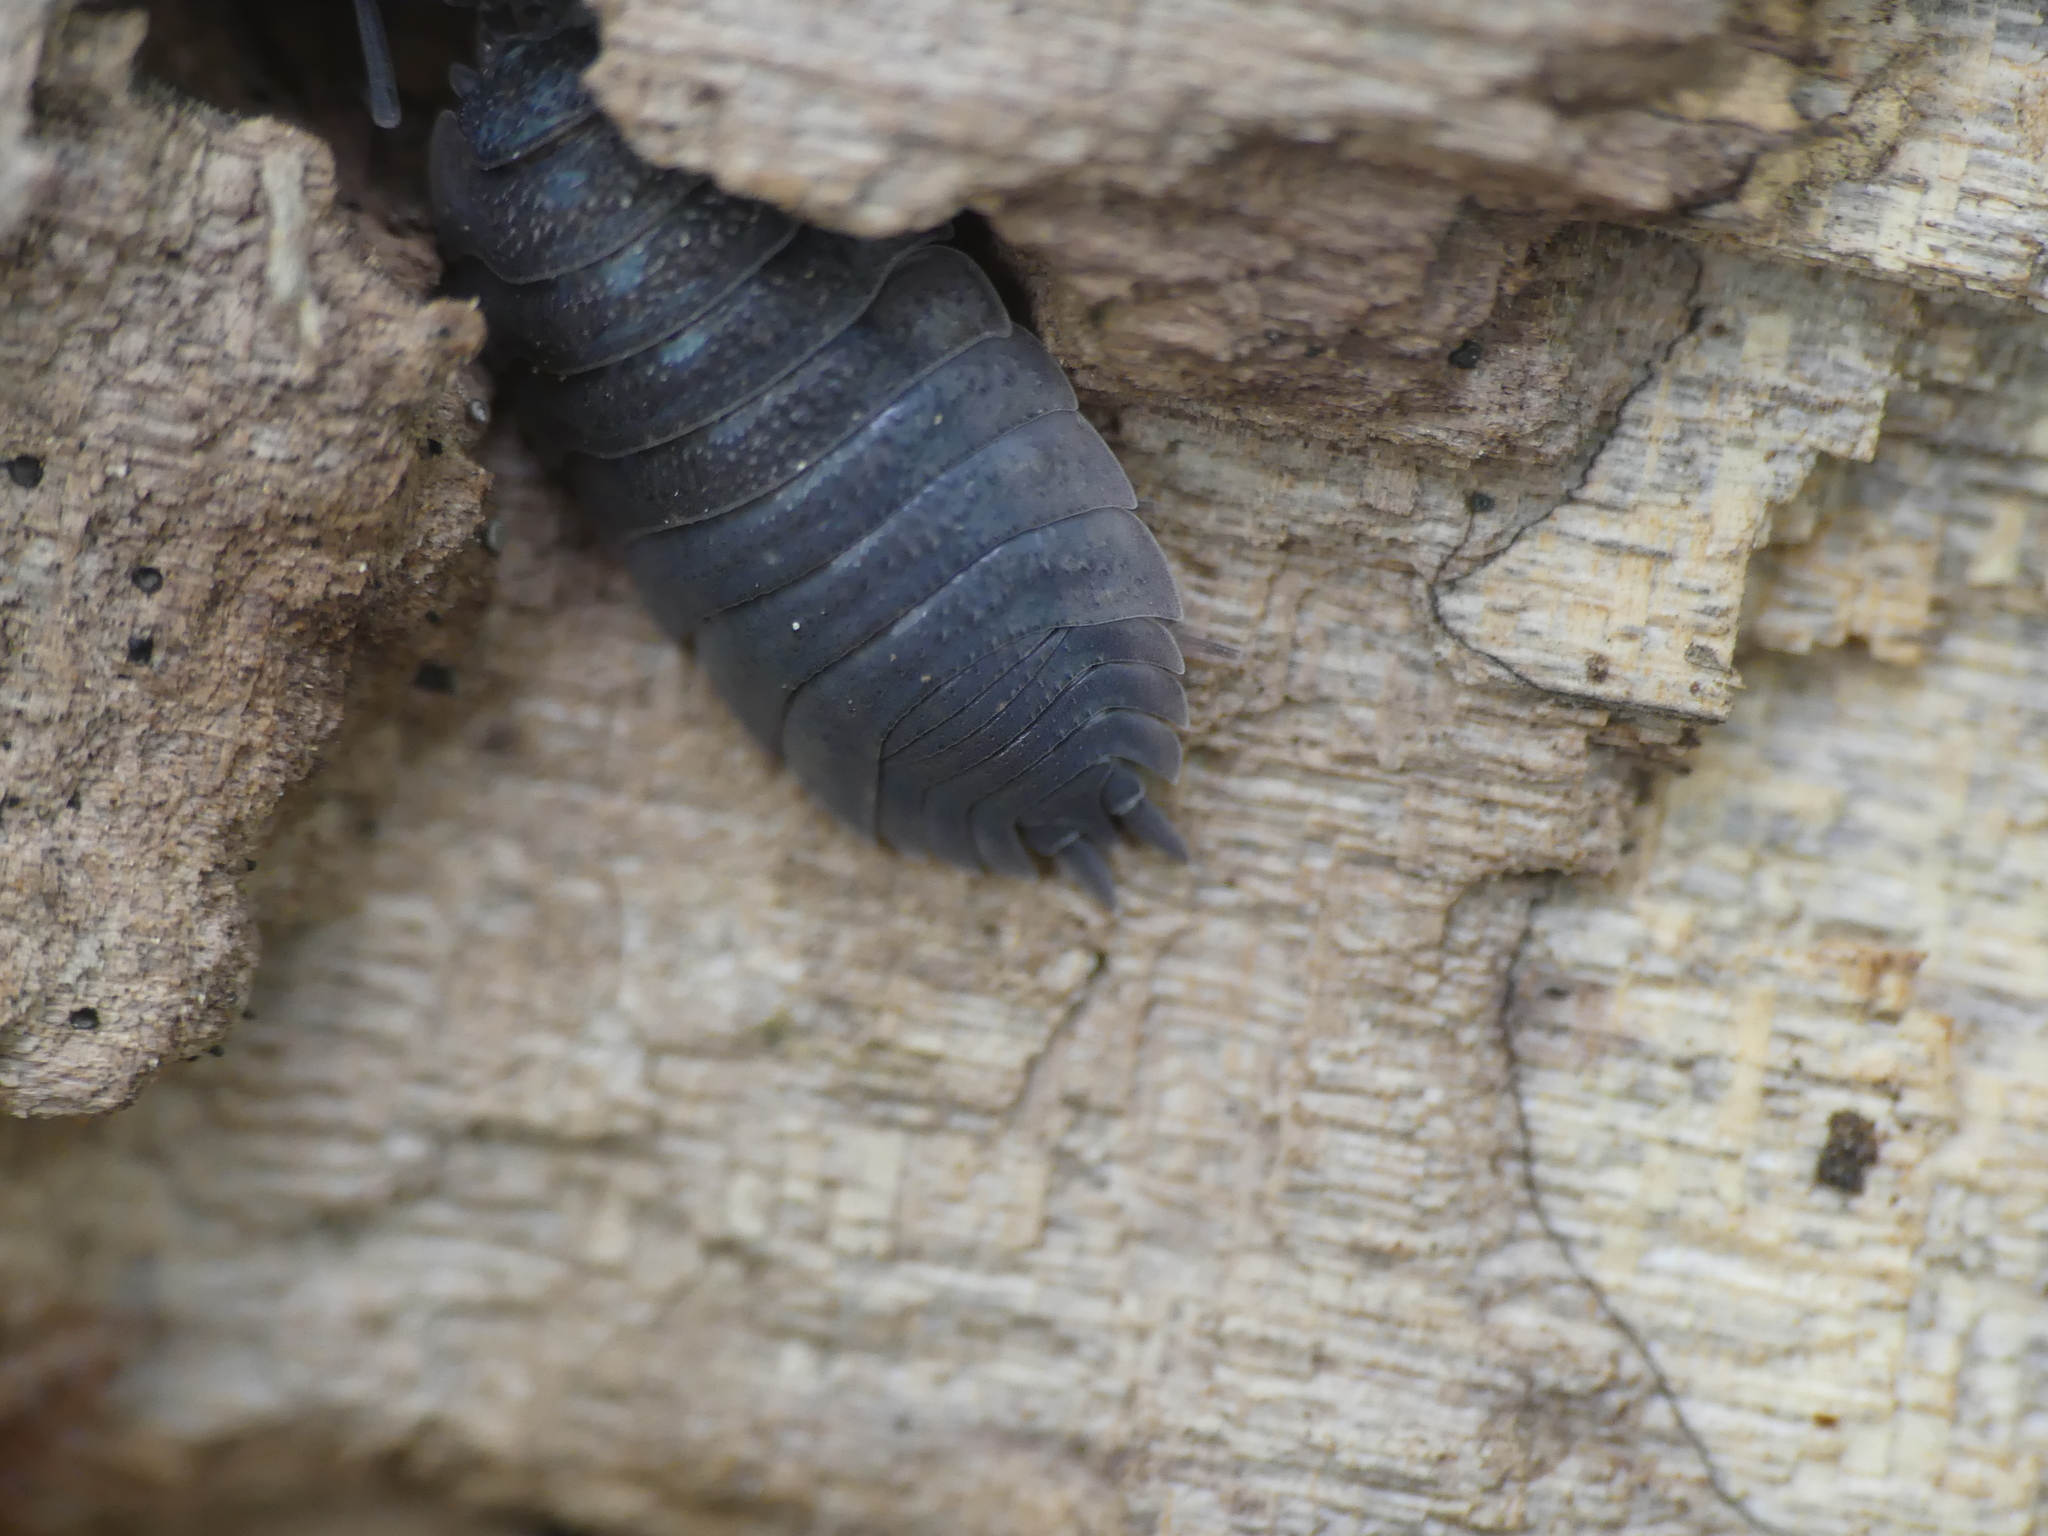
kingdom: Animalia
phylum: Arthropoda
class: Malacostraca
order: Isopoda
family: Porcellionidae
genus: Porcellio
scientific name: Porcellio scaber
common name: Common rough woodlouse
